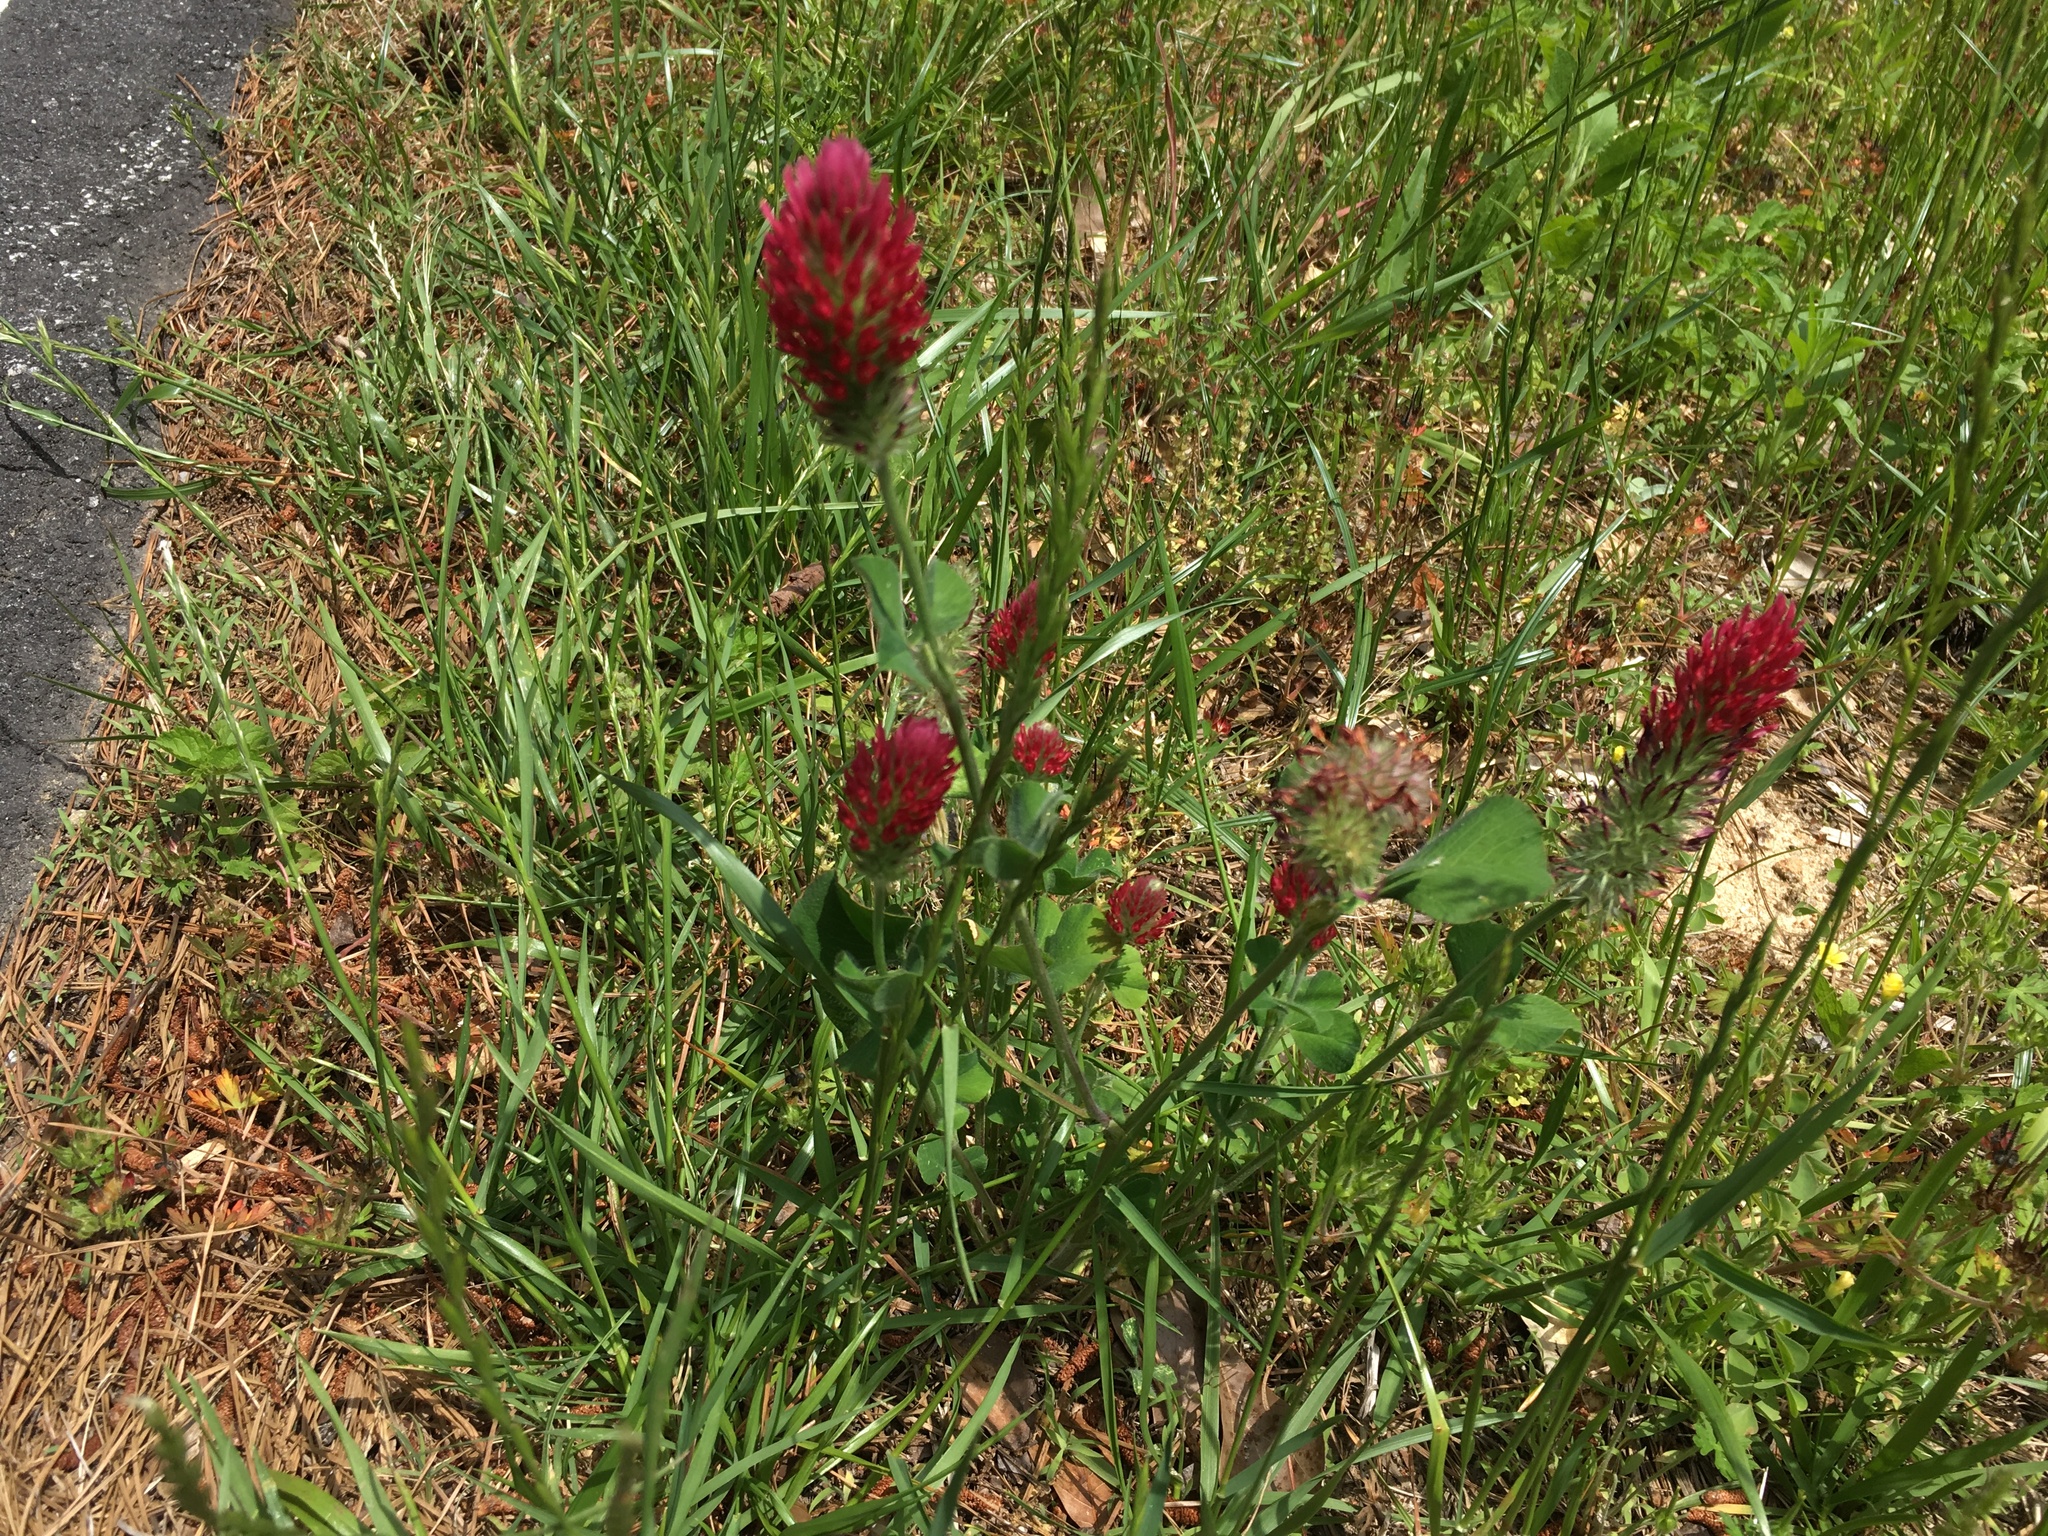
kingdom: Plantae
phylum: Tracheophyta
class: Magnoliopsida
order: Fabales
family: Fabaceae
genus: Trifolium
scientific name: Trifolium pratense
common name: Red clover
